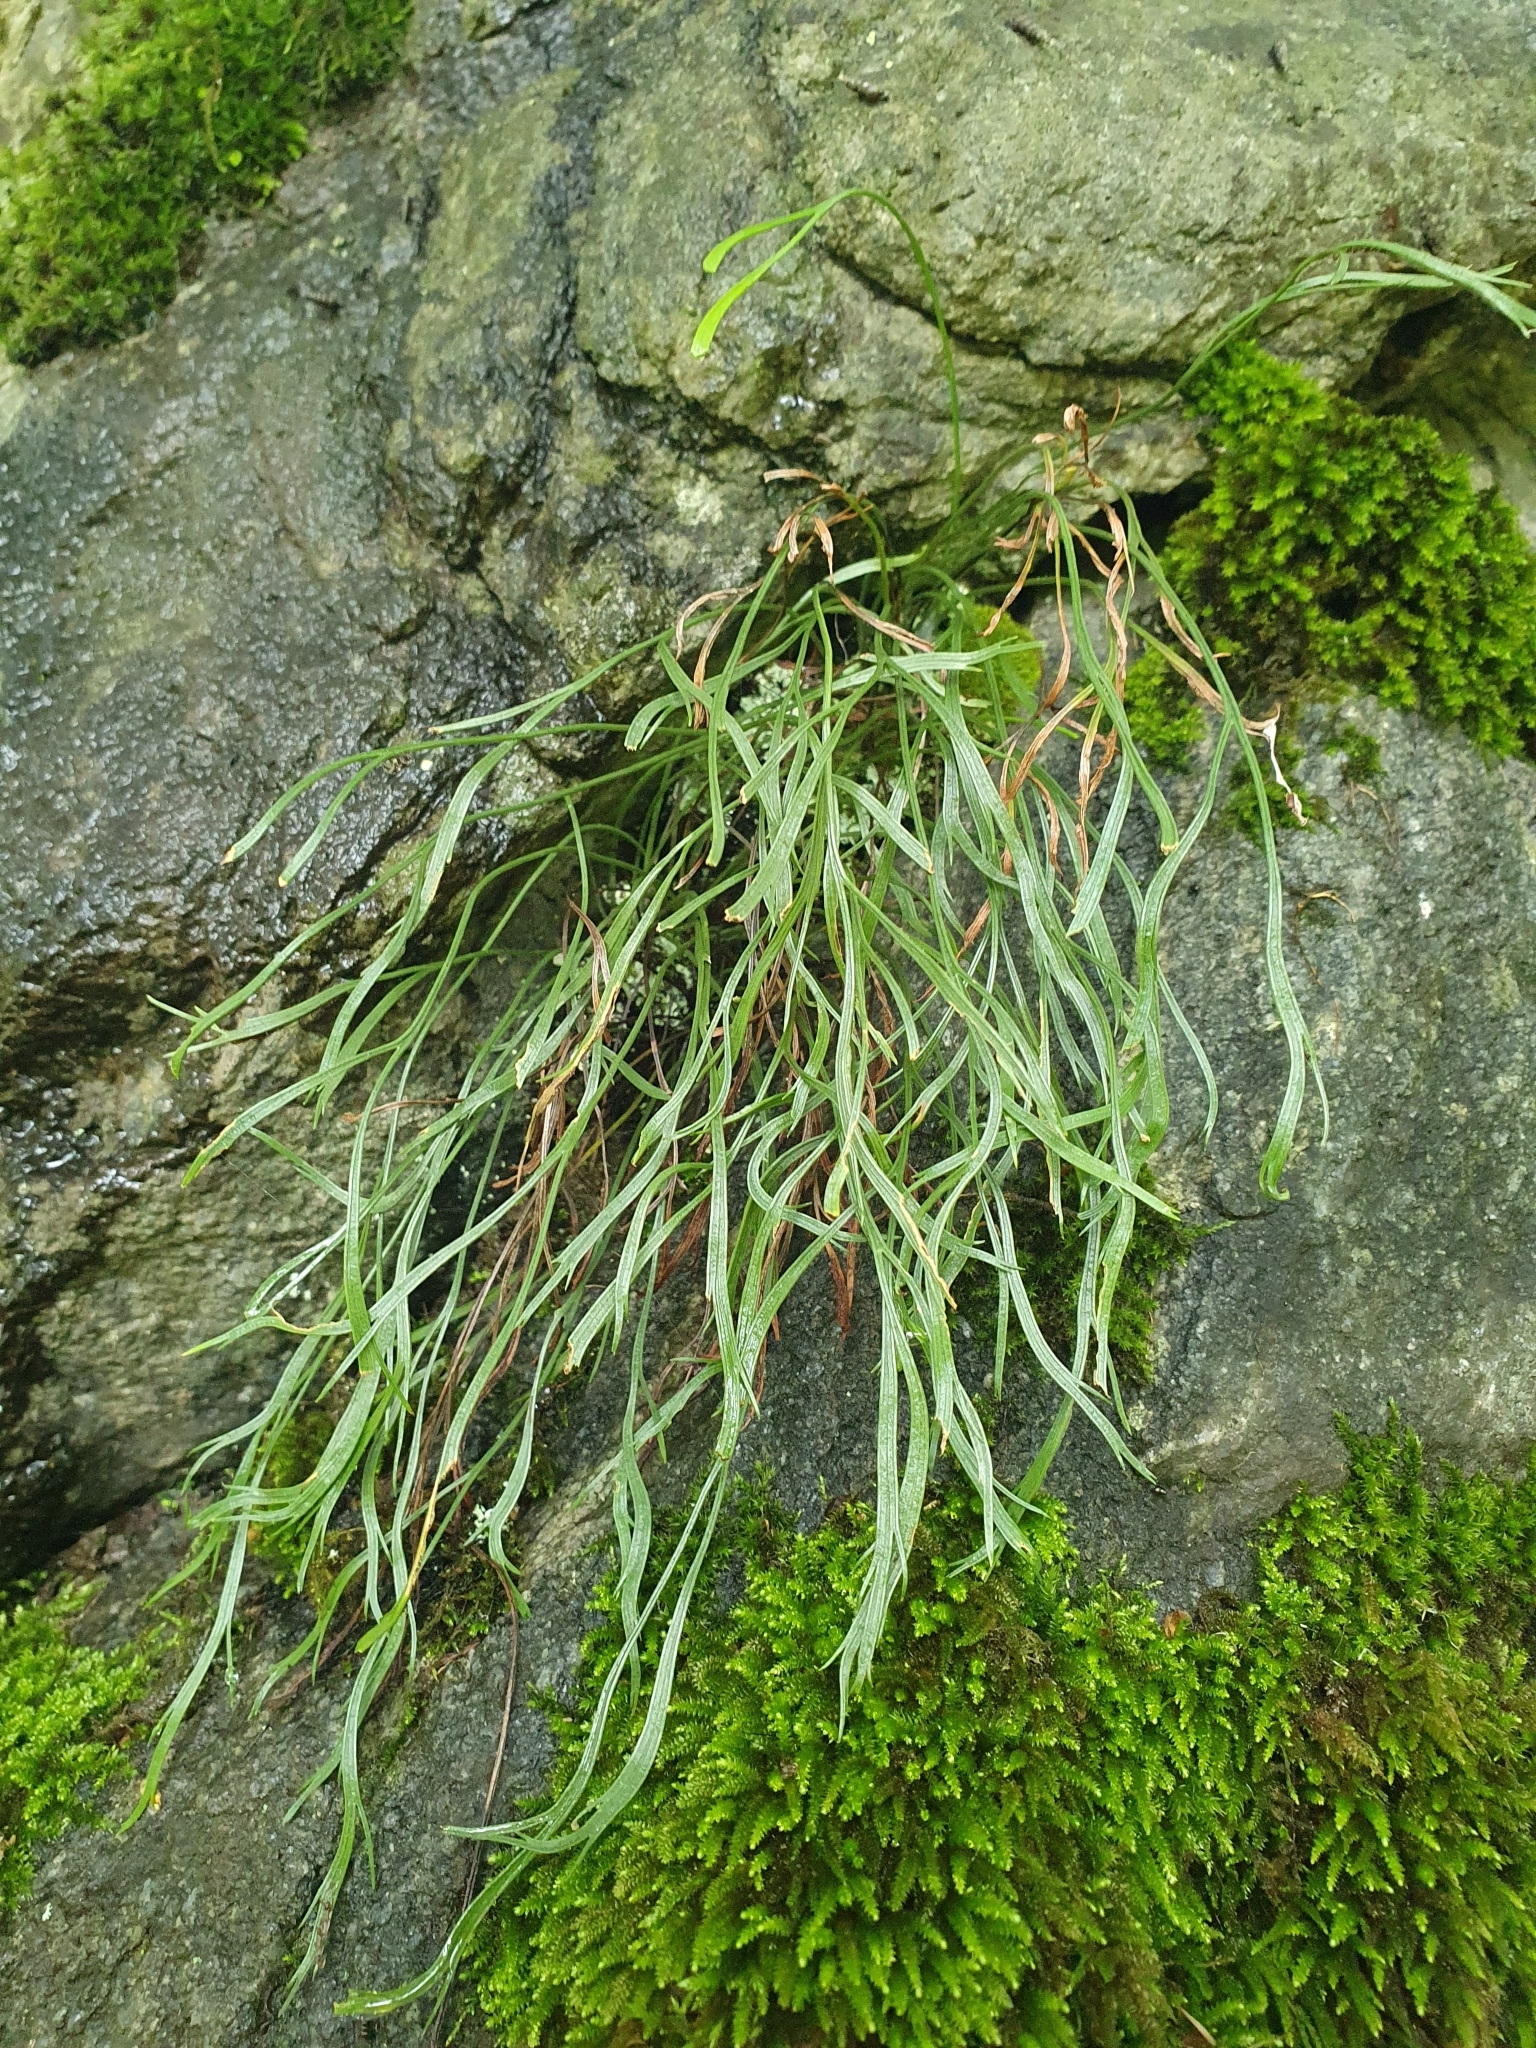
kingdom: Plantae
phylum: Tracheophyta
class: Polypodiopsida
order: Polypodiales
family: Aspleniaceae
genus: Asplenium
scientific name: Asplenium septentrionale
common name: Forked spleenwort
